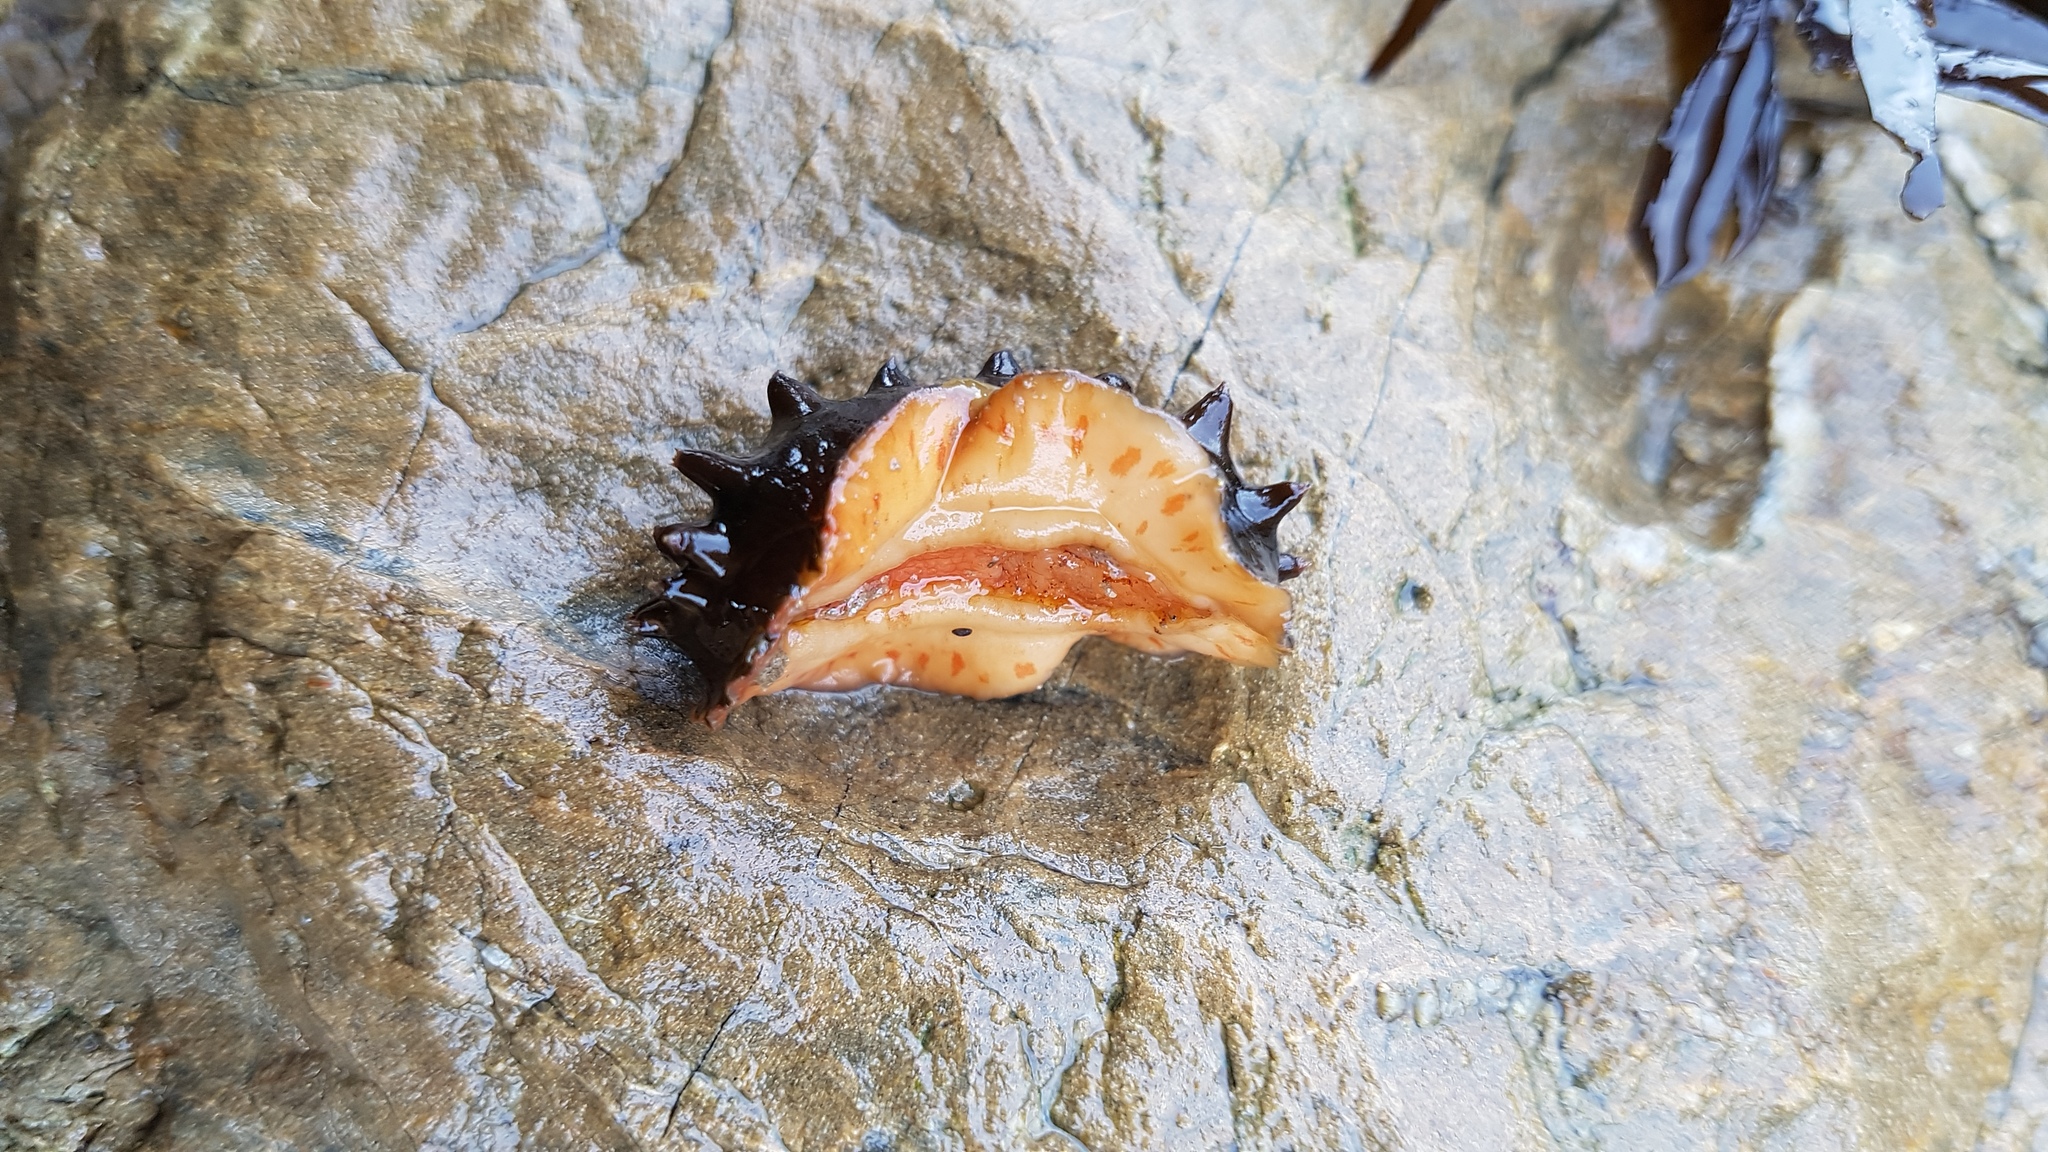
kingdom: Animalia
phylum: Mollusca
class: Polyplacophora
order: Chitonida
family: Acanthochitonidae
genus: Cryptoconchus
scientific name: Cryptoconchus porosus
